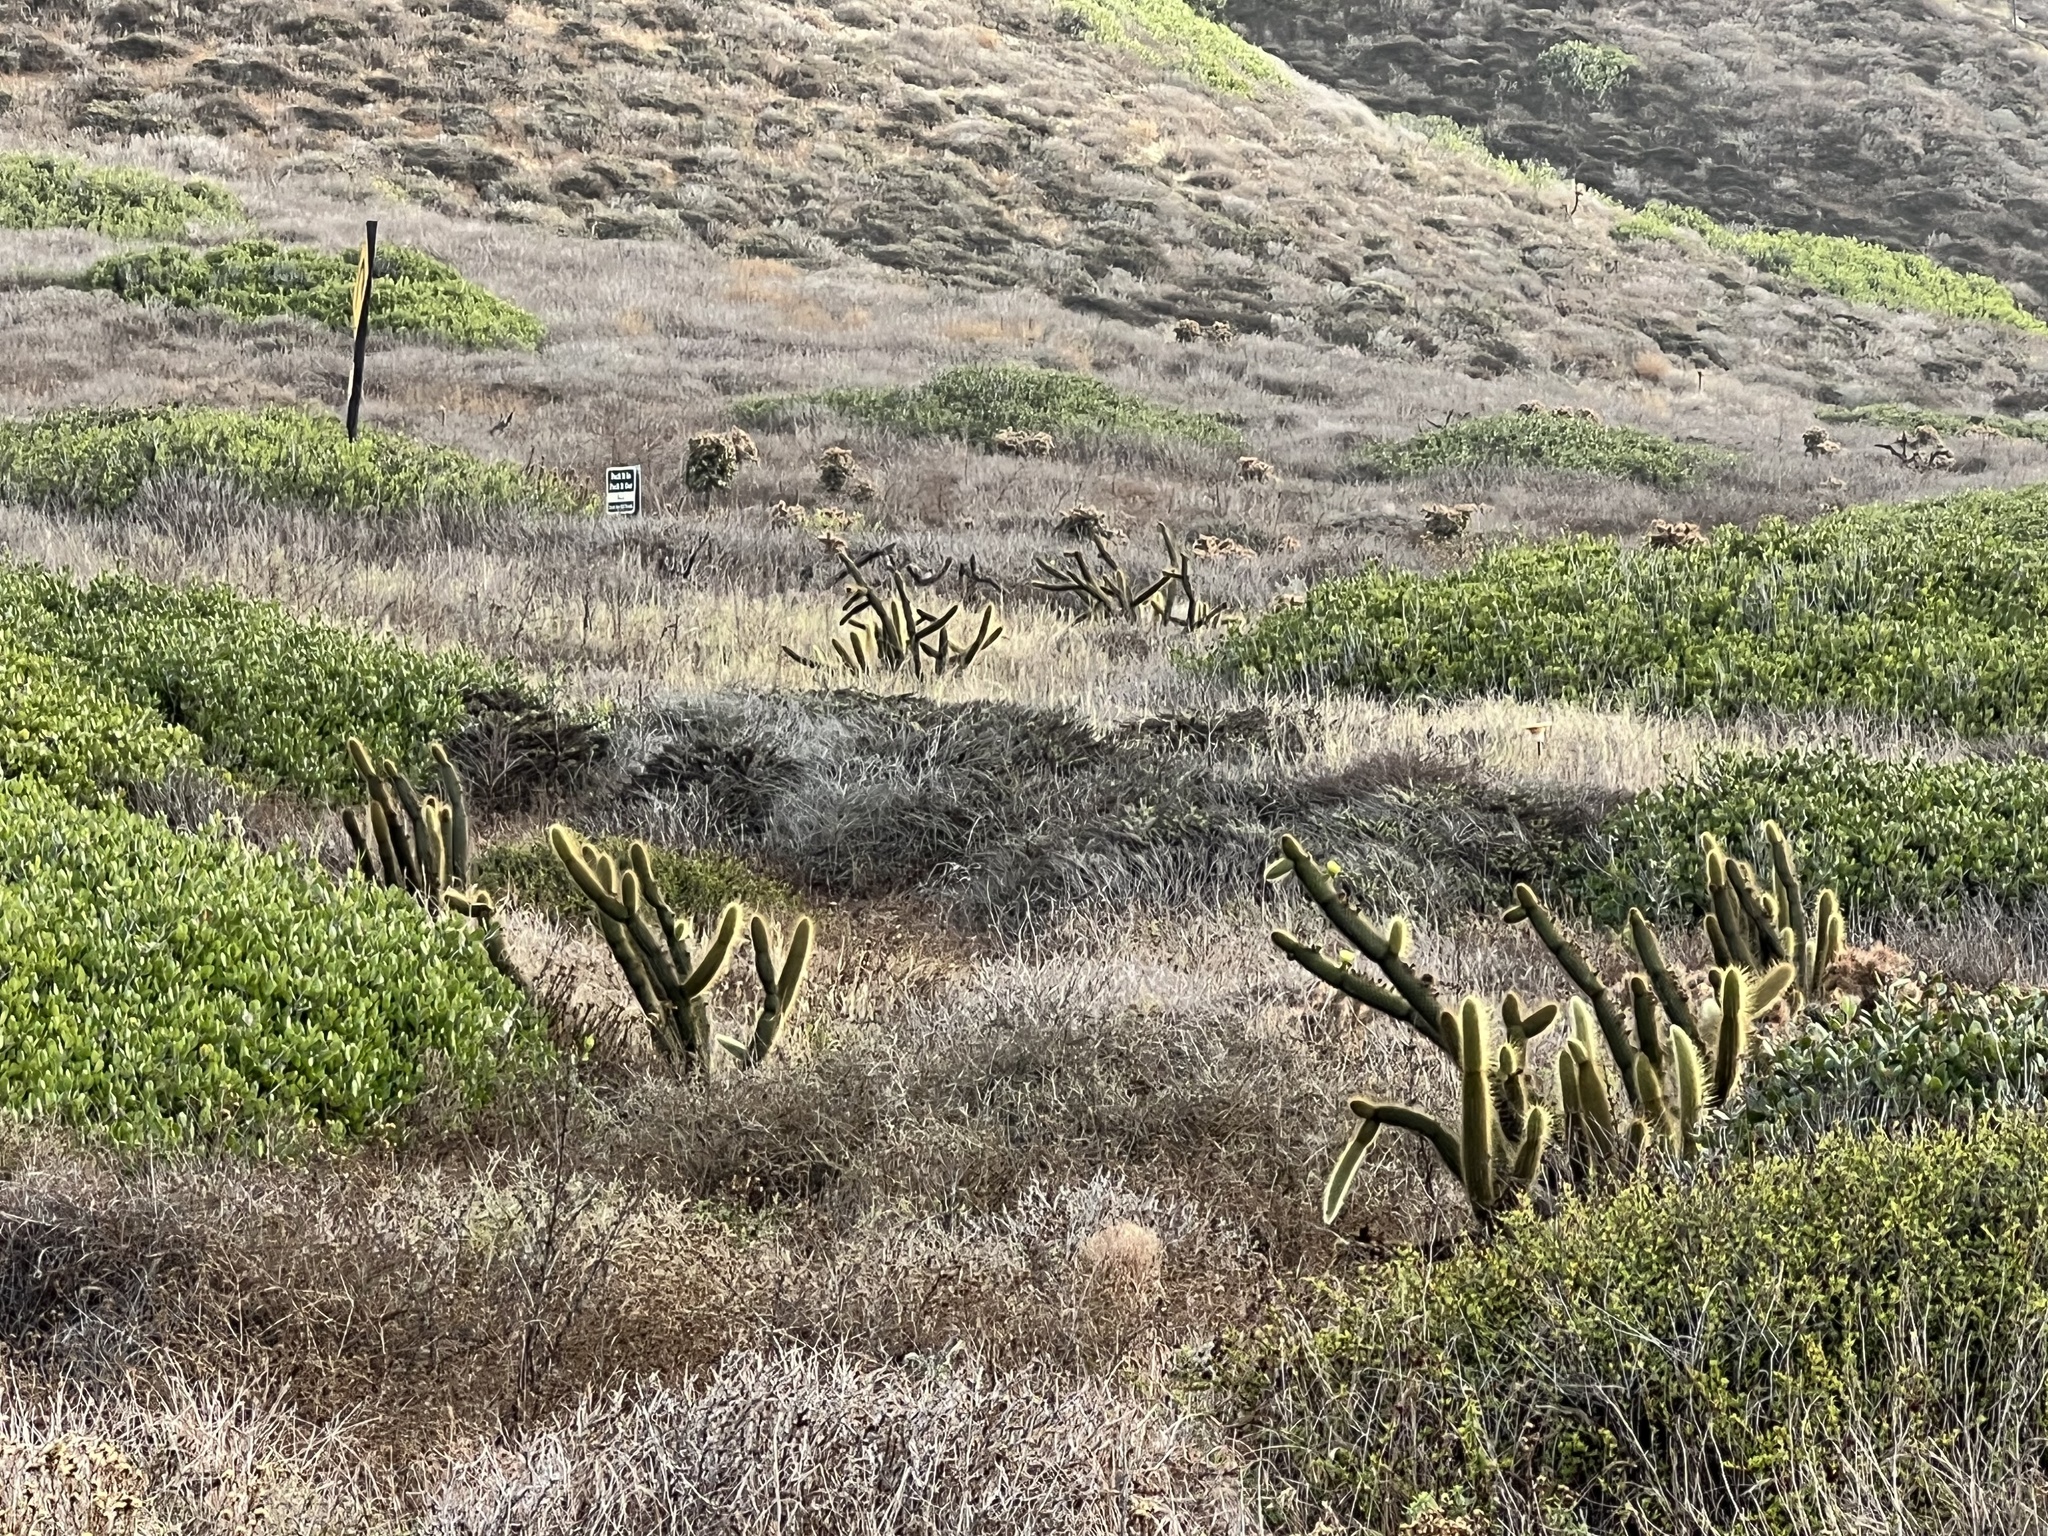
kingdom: Plantae
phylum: Tracheophyta
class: Magnoliopsida
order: Caryophyllales
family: Cactaceae
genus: Bergerocactus
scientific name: Bergerocactus emoryi
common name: Golden snakecactus
